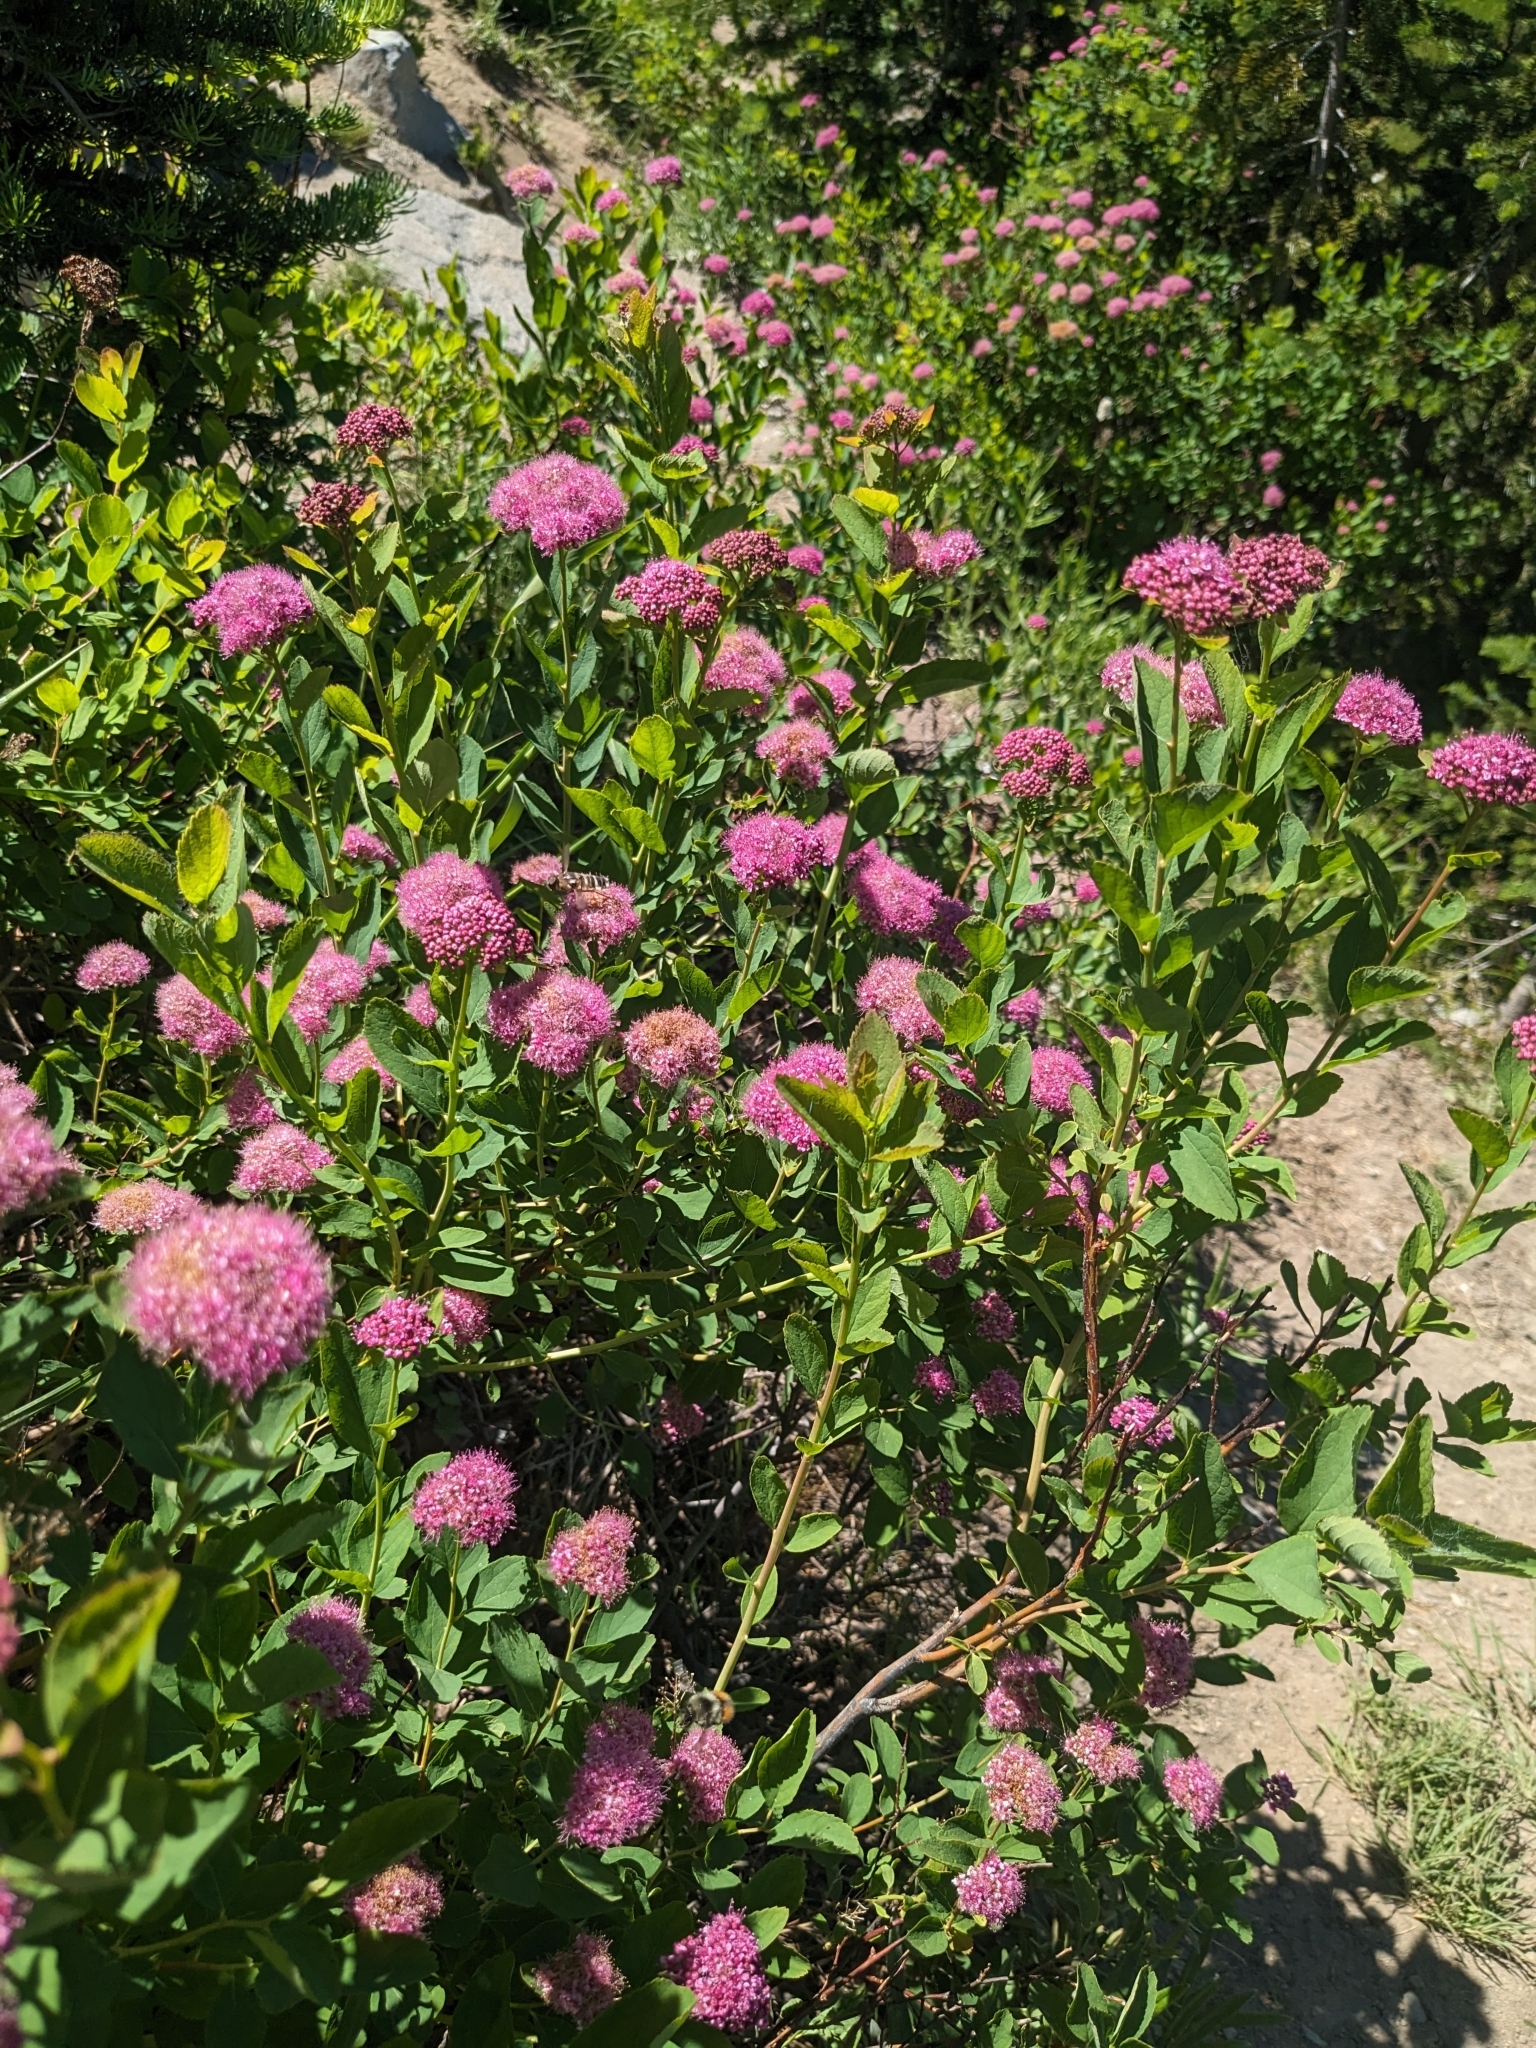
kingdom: Plantae
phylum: Tracheophyta
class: Magnoliopsida
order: Rosales
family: Rosaceae
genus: Spiraea
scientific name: Spiraea splendens
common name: Subalpine meadowsweet
